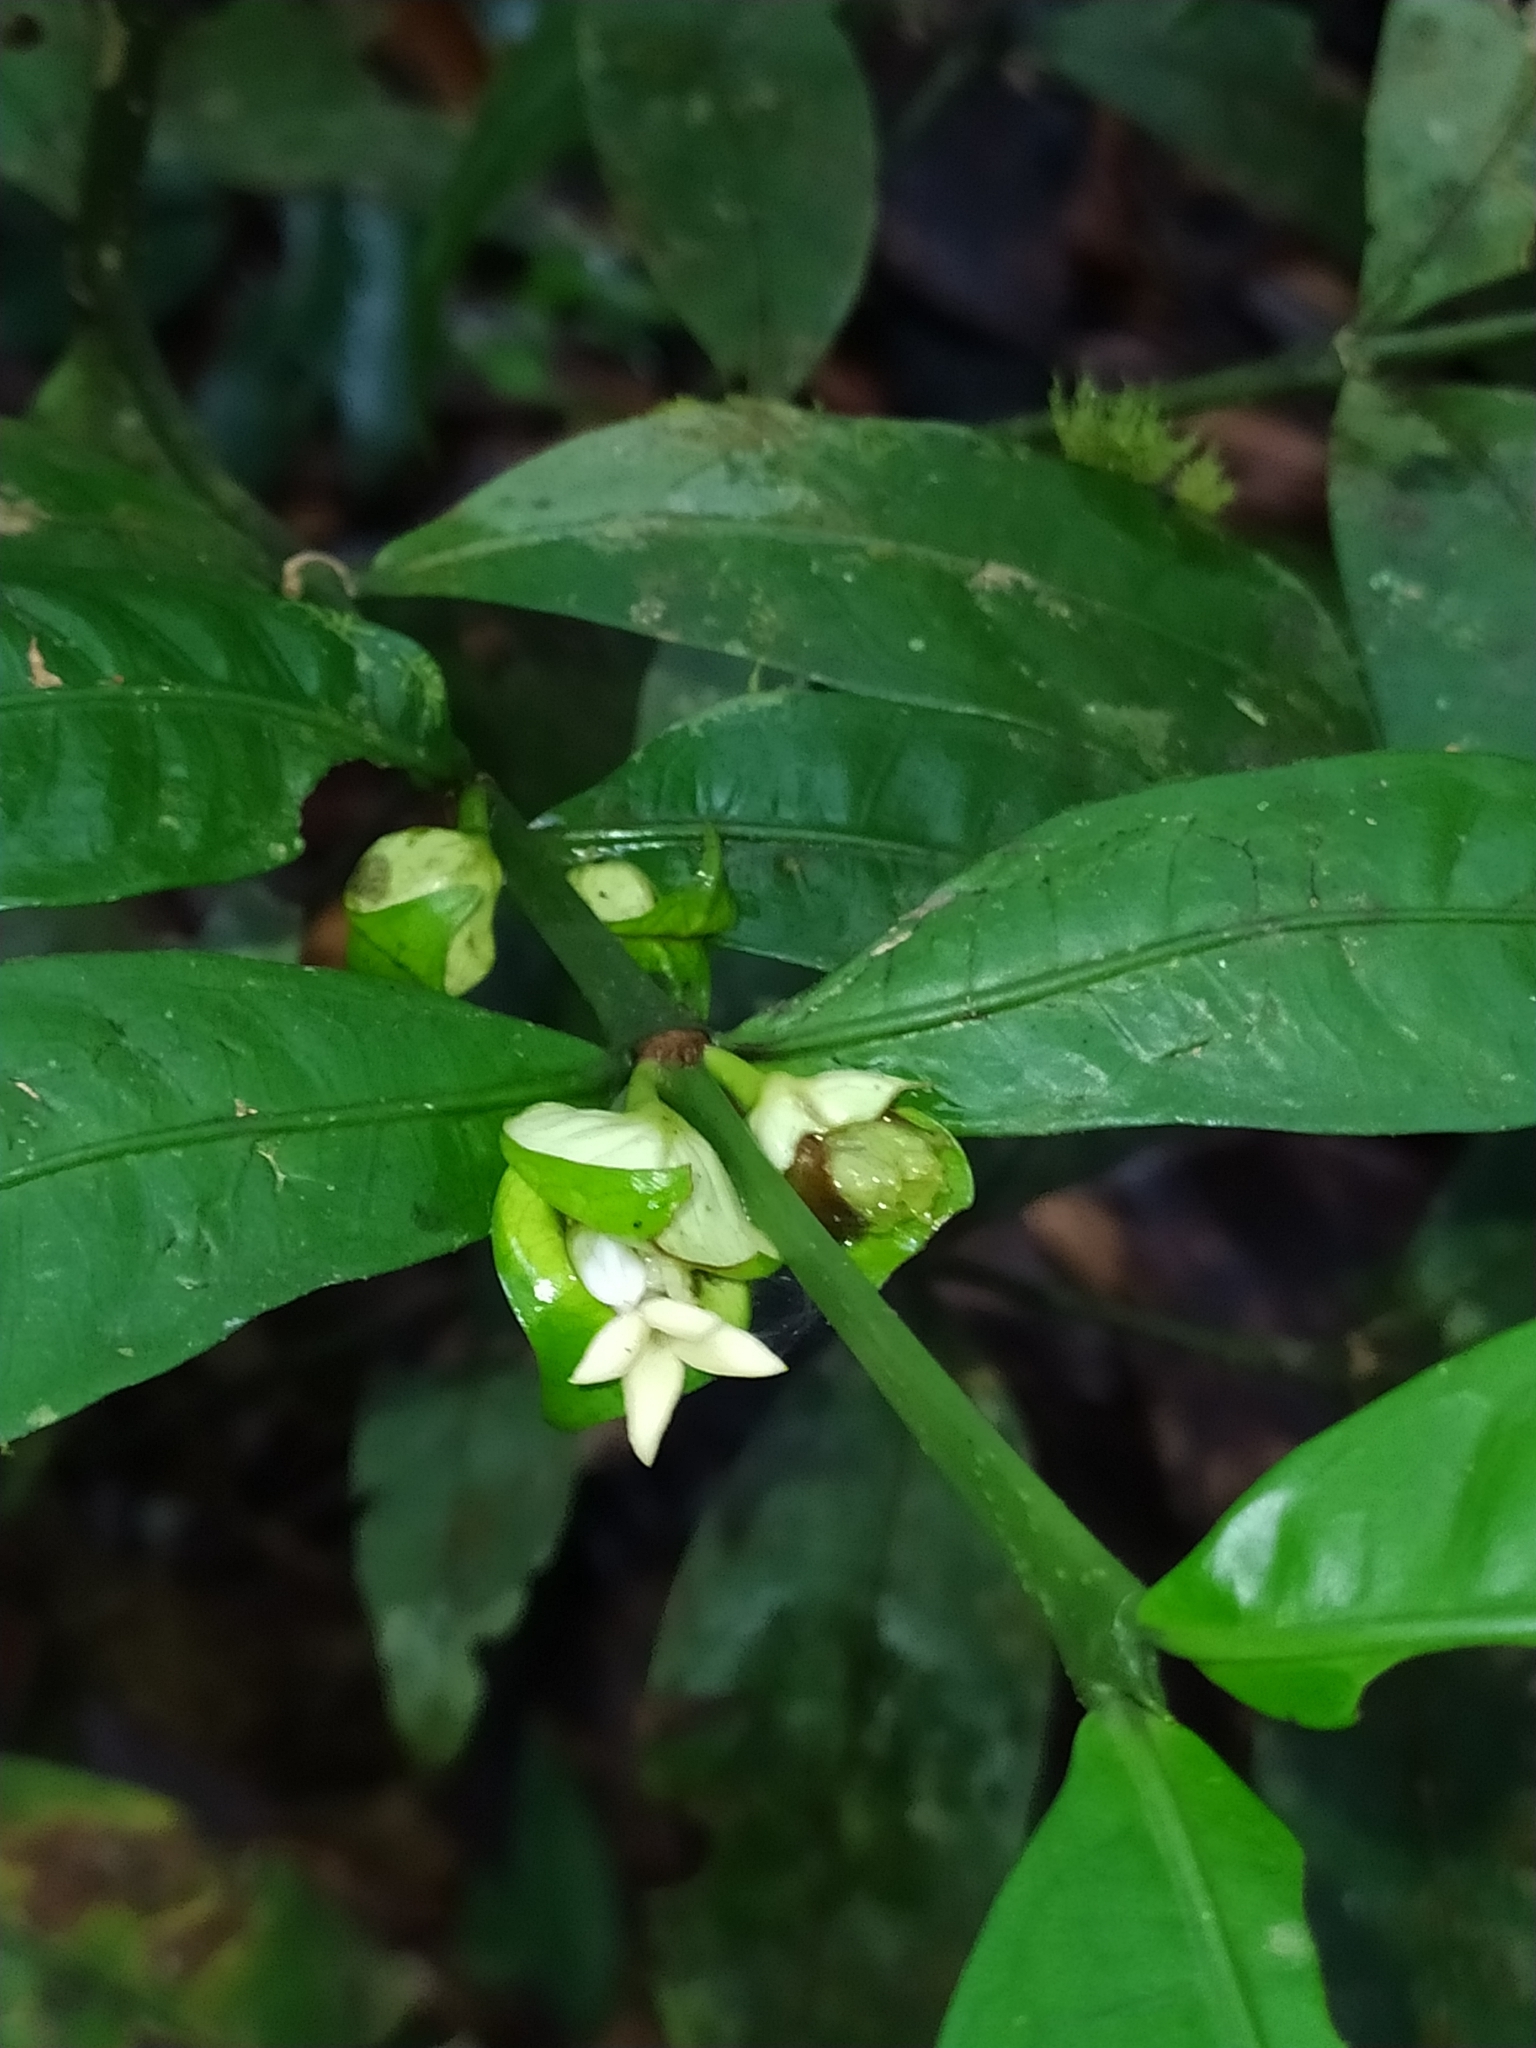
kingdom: Plantae
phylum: Tracheophyta
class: Magnoliopsida
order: Gentianales
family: Rubiaceae
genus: Faramea
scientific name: Faramea guianensis
